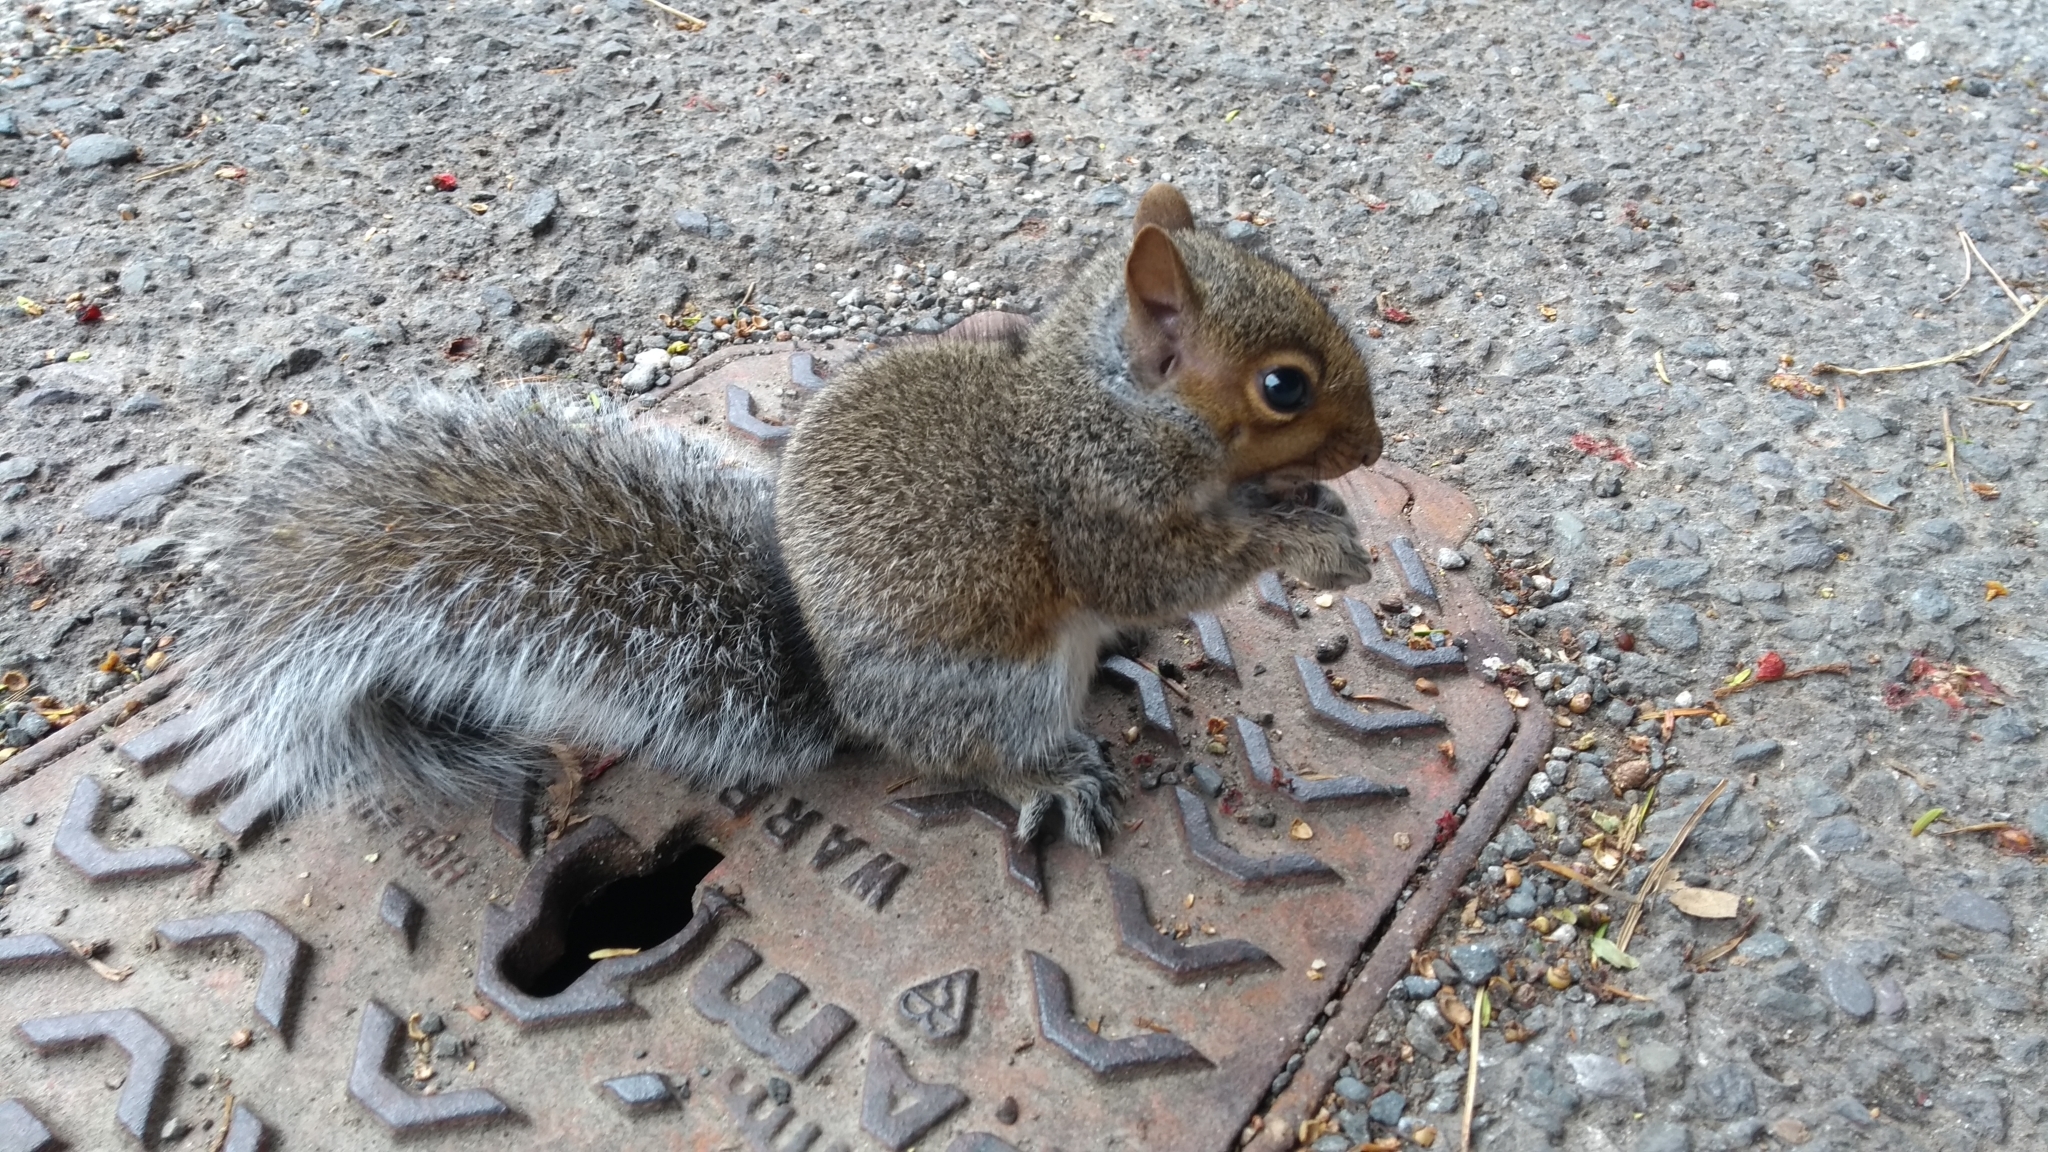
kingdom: Animalia
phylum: Chordata
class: Mammalia
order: Rodentia
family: Sciuridae
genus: Sciurus
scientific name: Sciurus carolinensis
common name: Eastern gray squirrel
